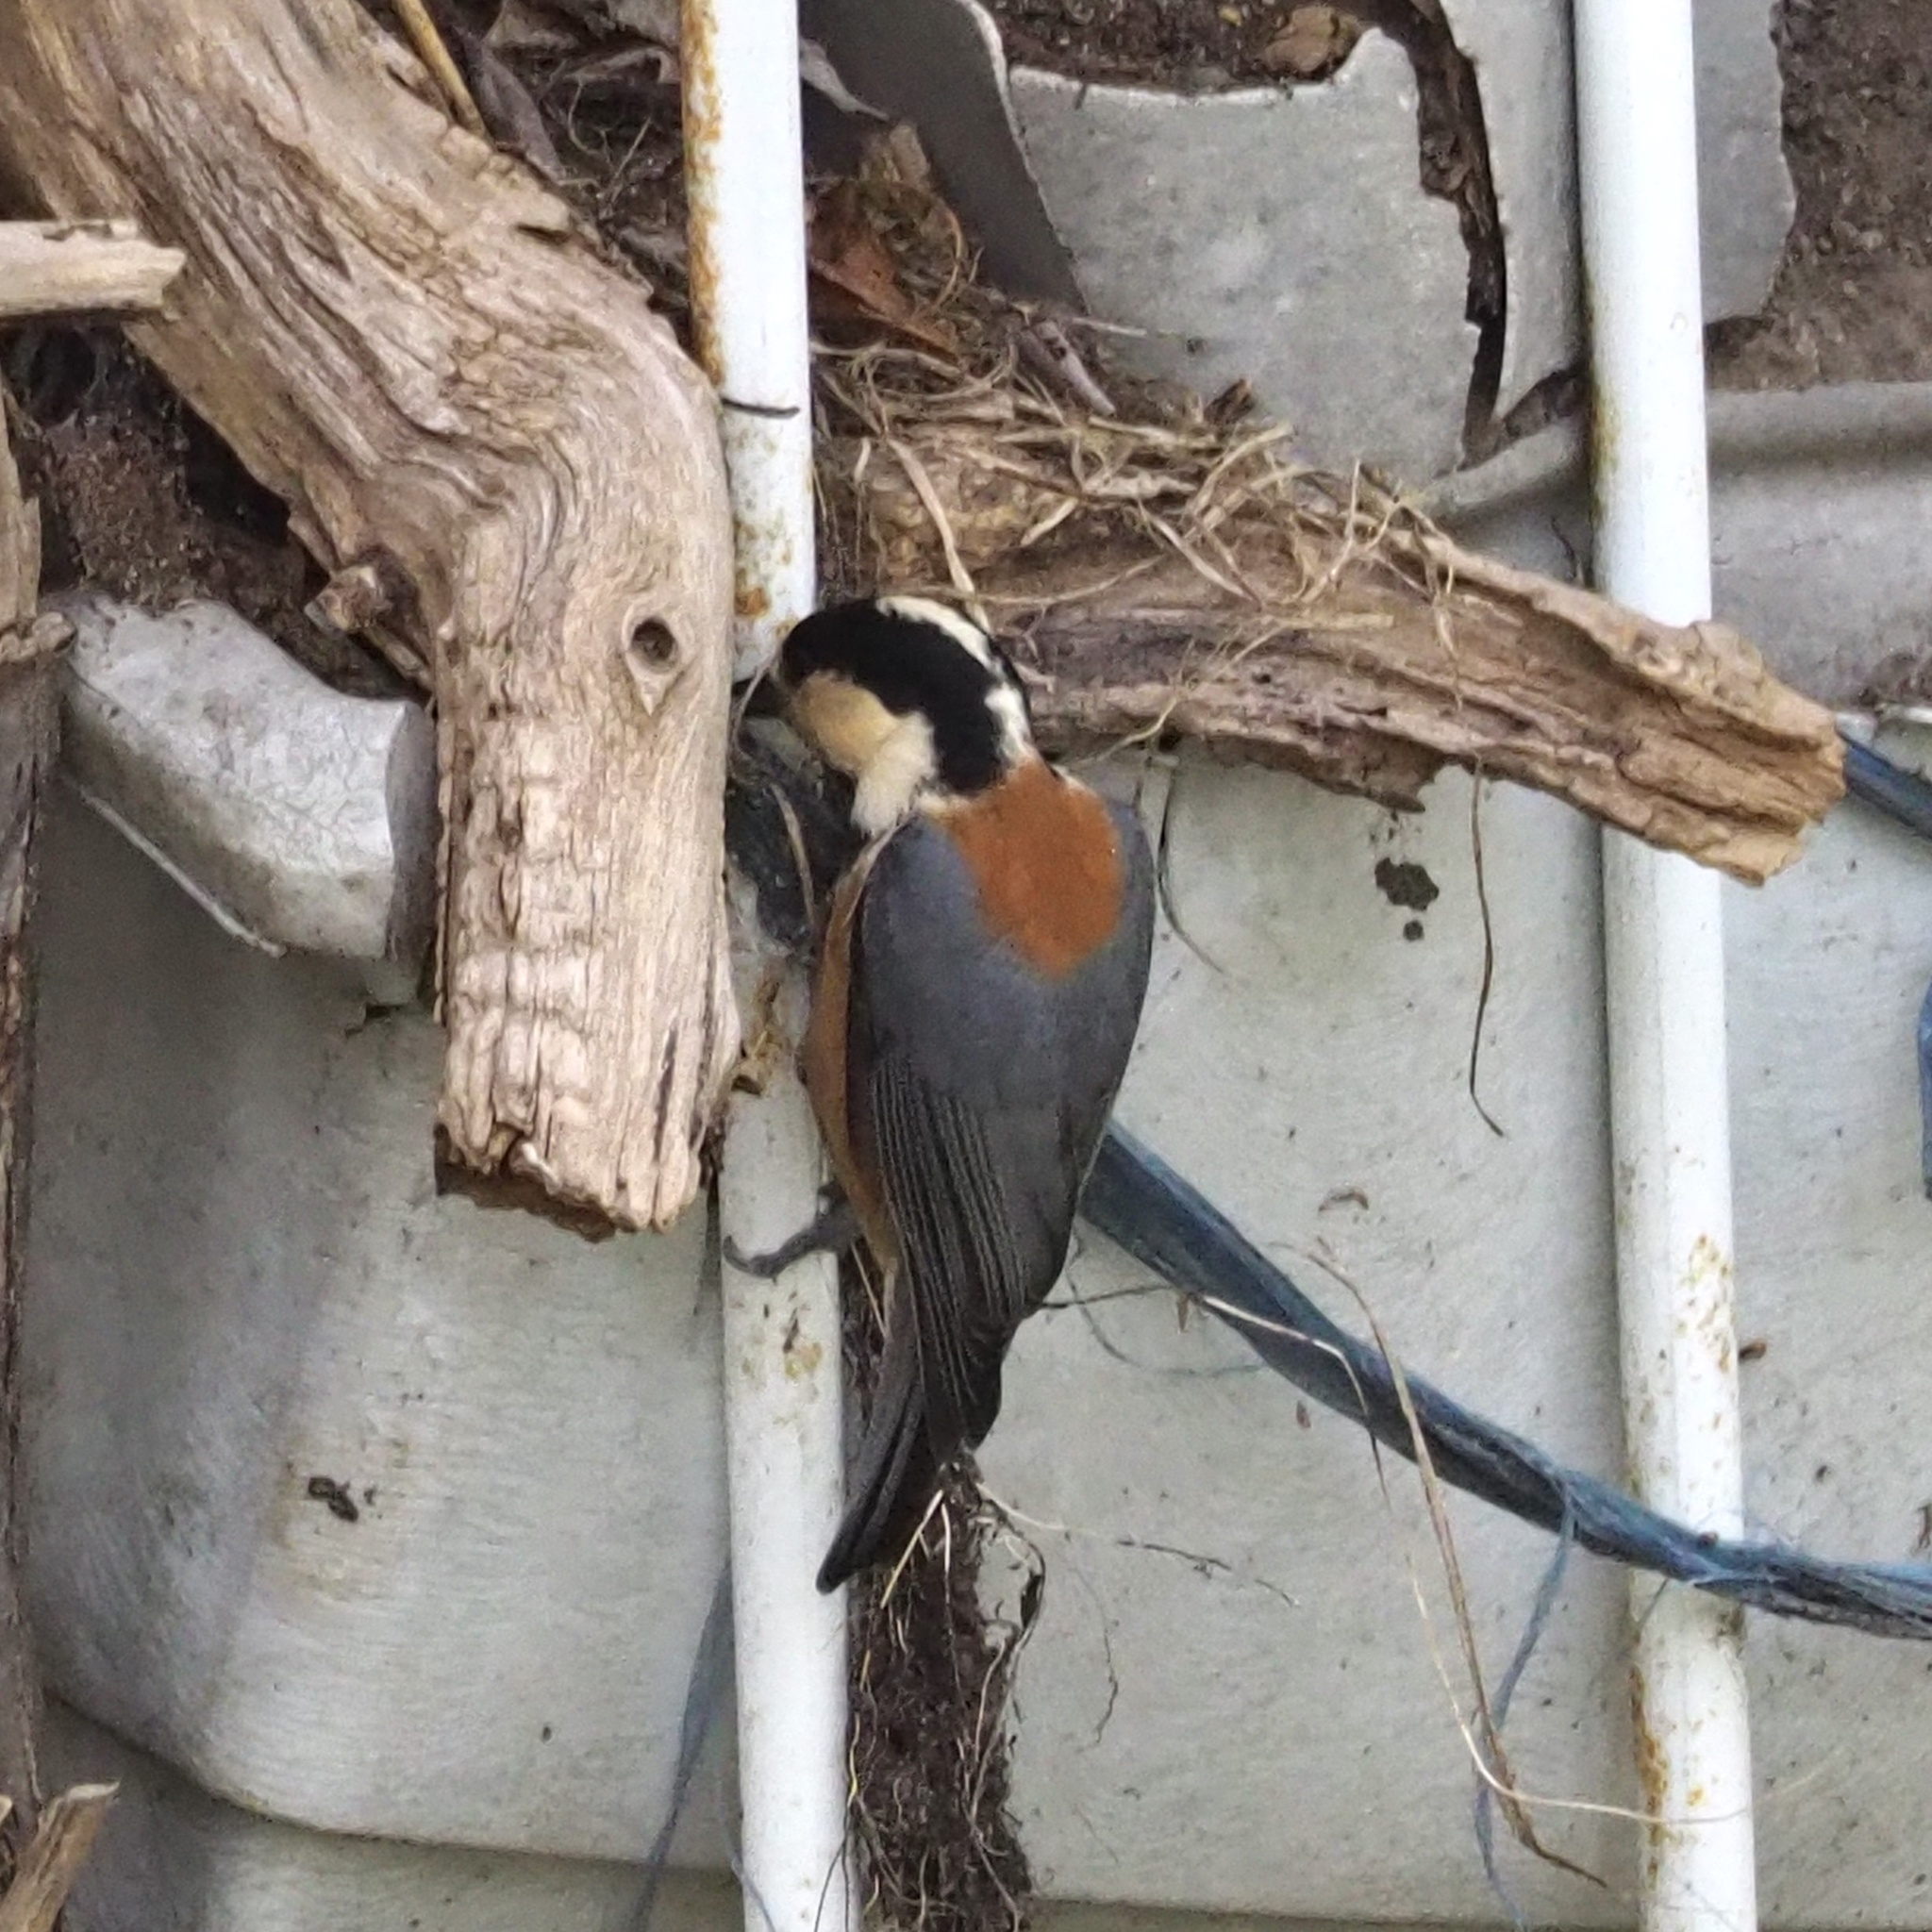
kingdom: Animalia
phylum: Chordata
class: Aves
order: Passeriformes
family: Paridae
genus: Poecile
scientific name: Poecile varius
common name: Varied tit
